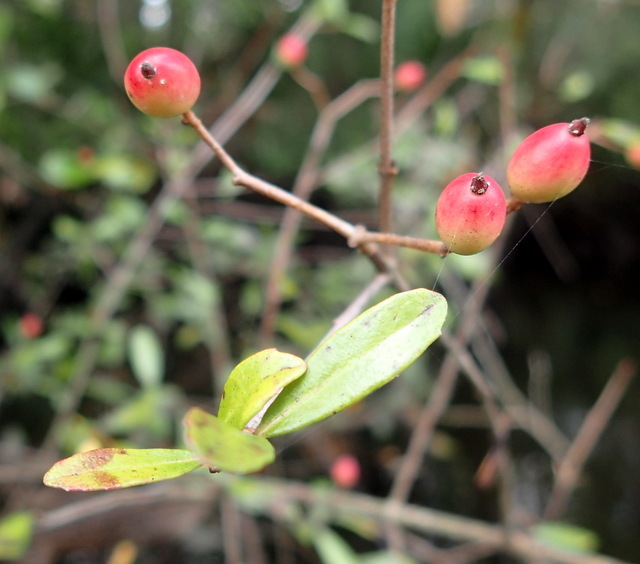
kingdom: Plantae
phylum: Tracheophyta
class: Magnoliopsida
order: Dipsacales
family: Viburnaceae
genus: Viburnum
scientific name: Viburnum obovatum
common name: Walter's viburnum
